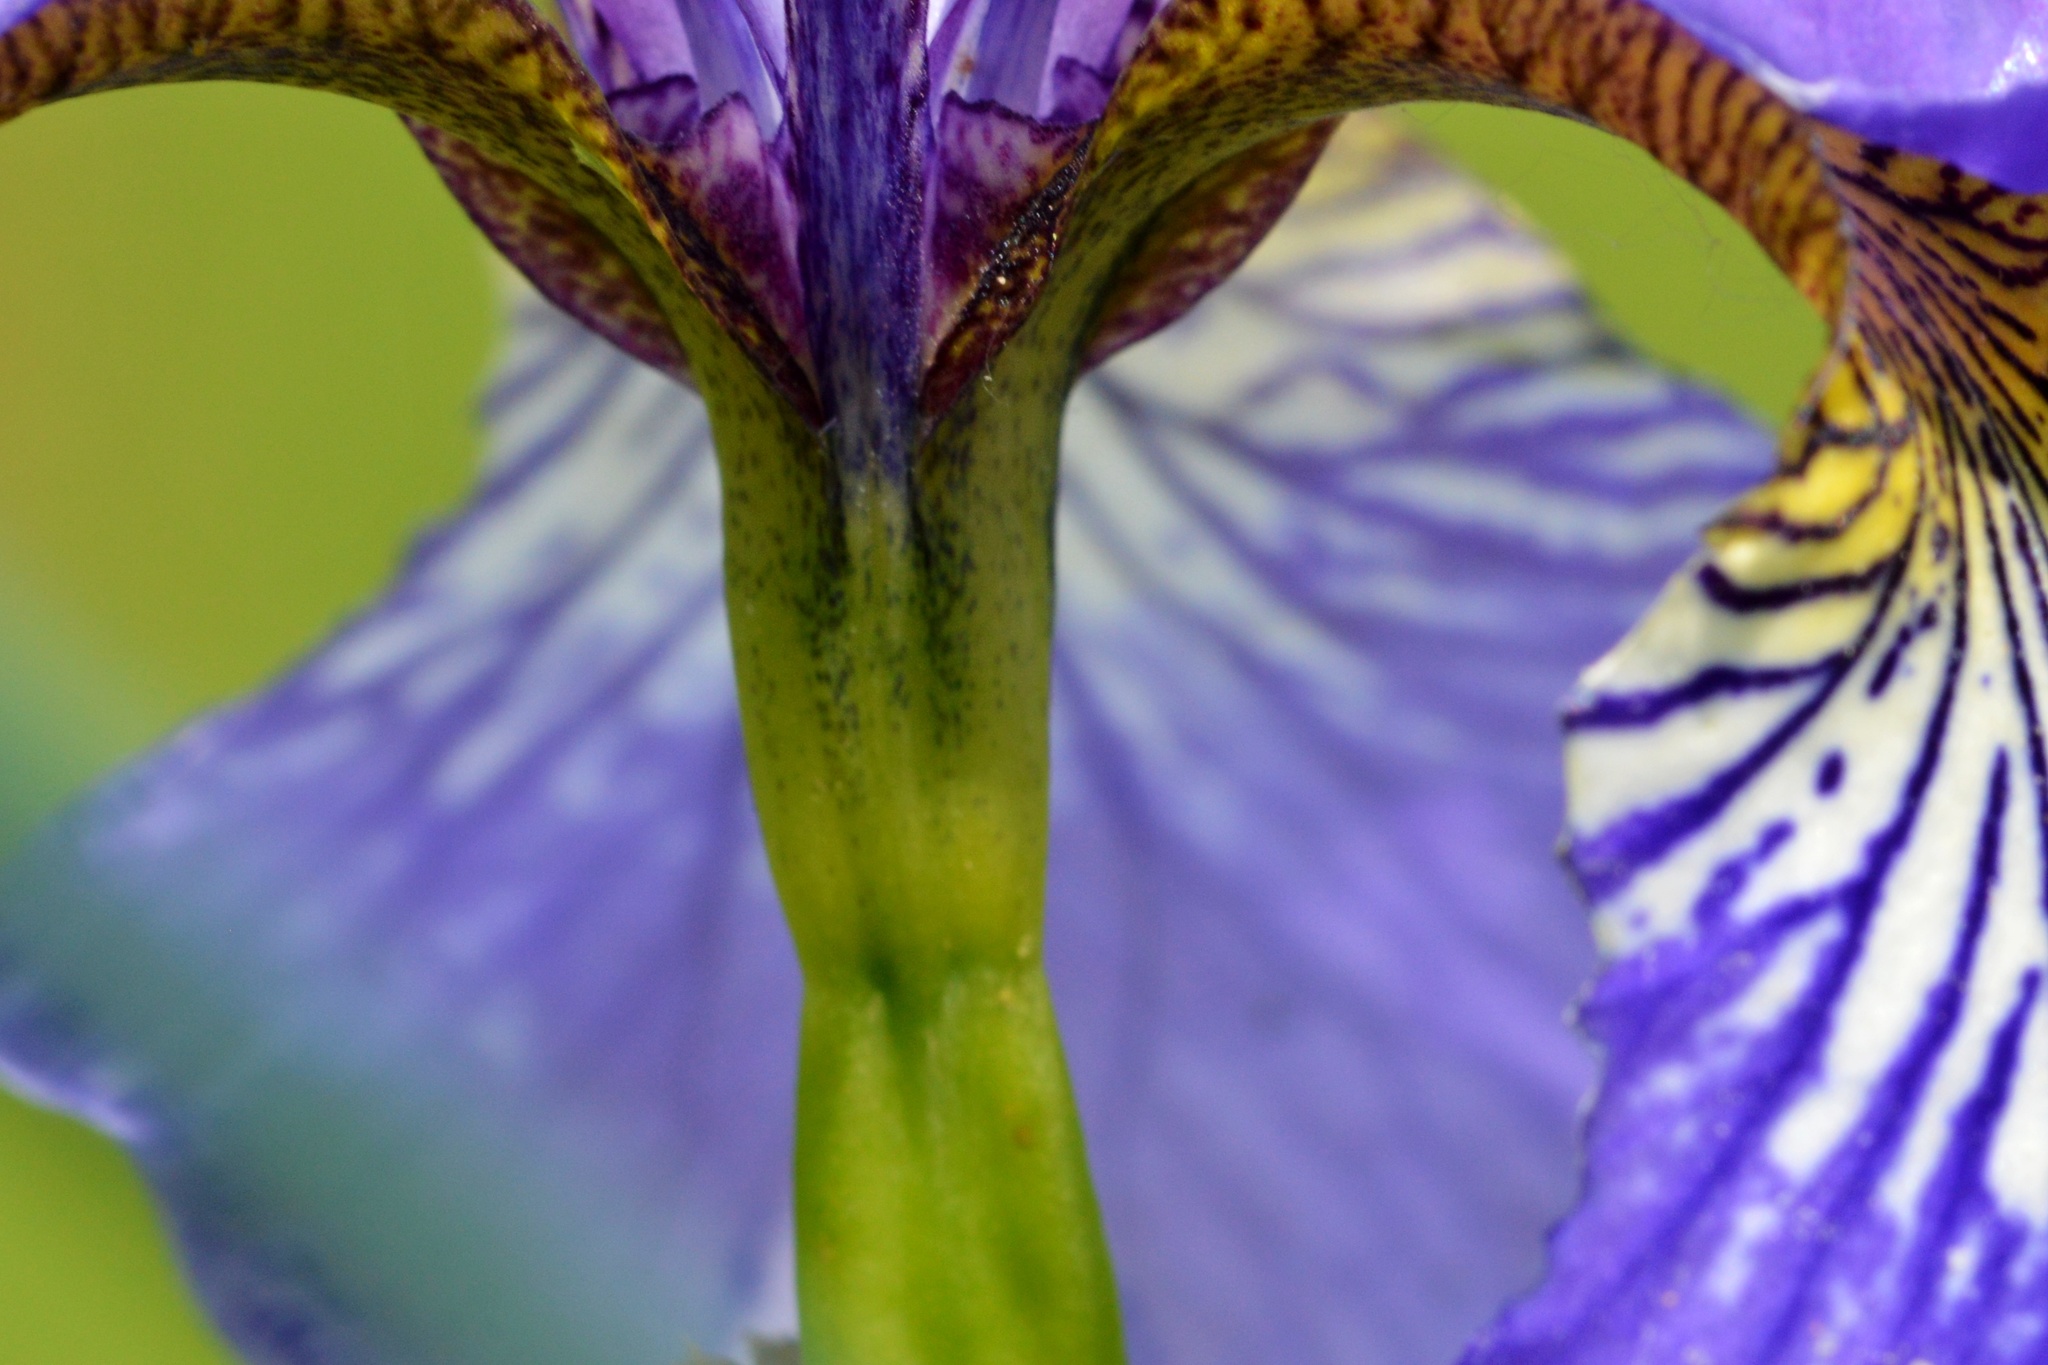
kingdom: Plantae
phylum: Tracheophyta
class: Liliopsida
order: Asparagales
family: Iridaceae
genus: Iris
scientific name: Iris sanguinea
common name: Blood iris
